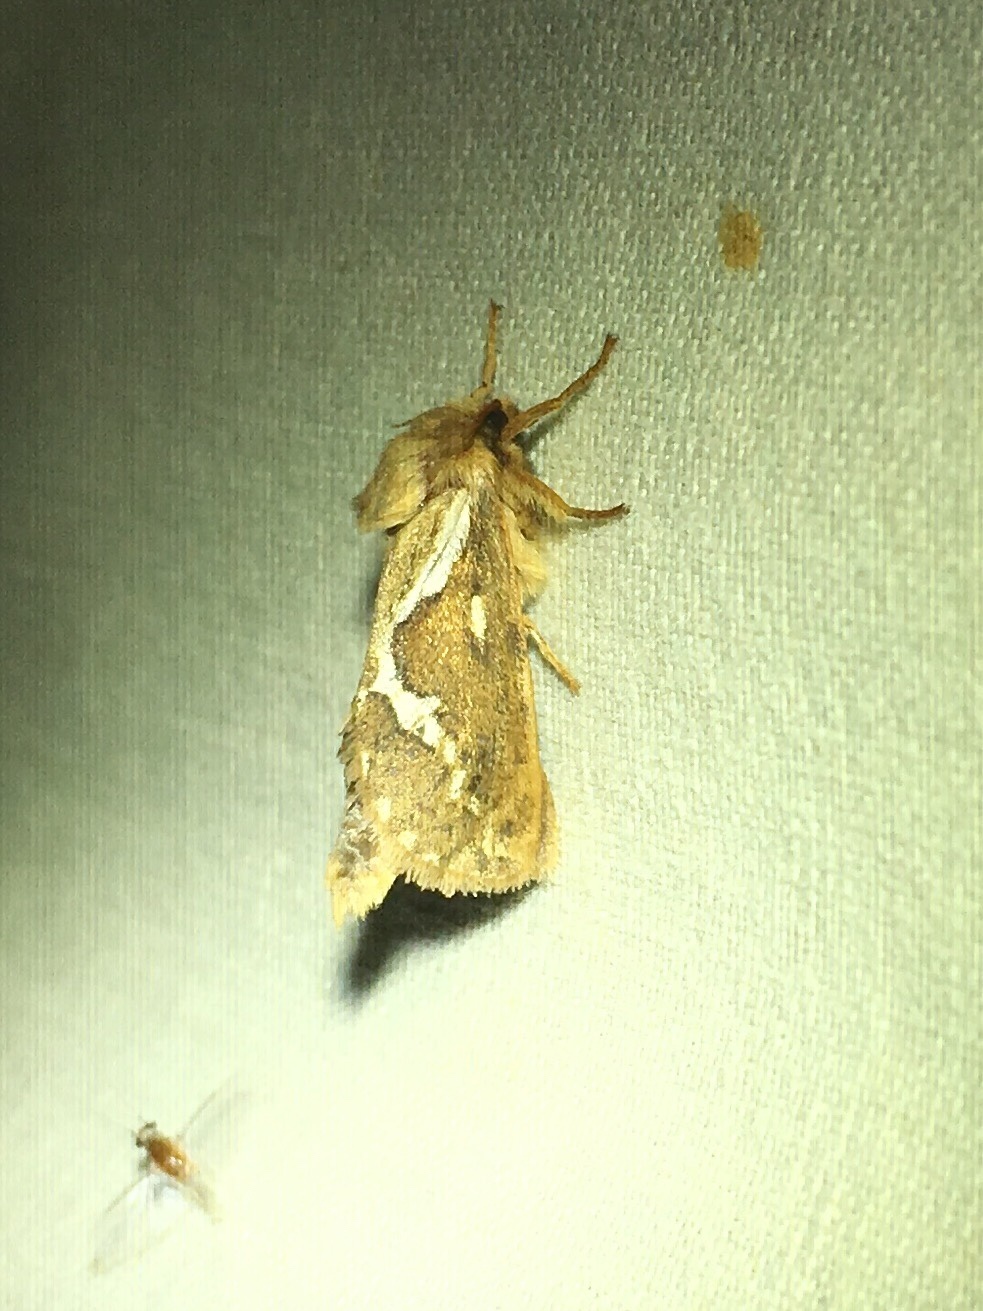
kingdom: Animalia
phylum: Arthropoda
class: Insecta
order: Lepidoptera
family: Hepialidae
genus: Korscheltellus
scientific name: Korscheltellus lupulina
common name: Common swift
